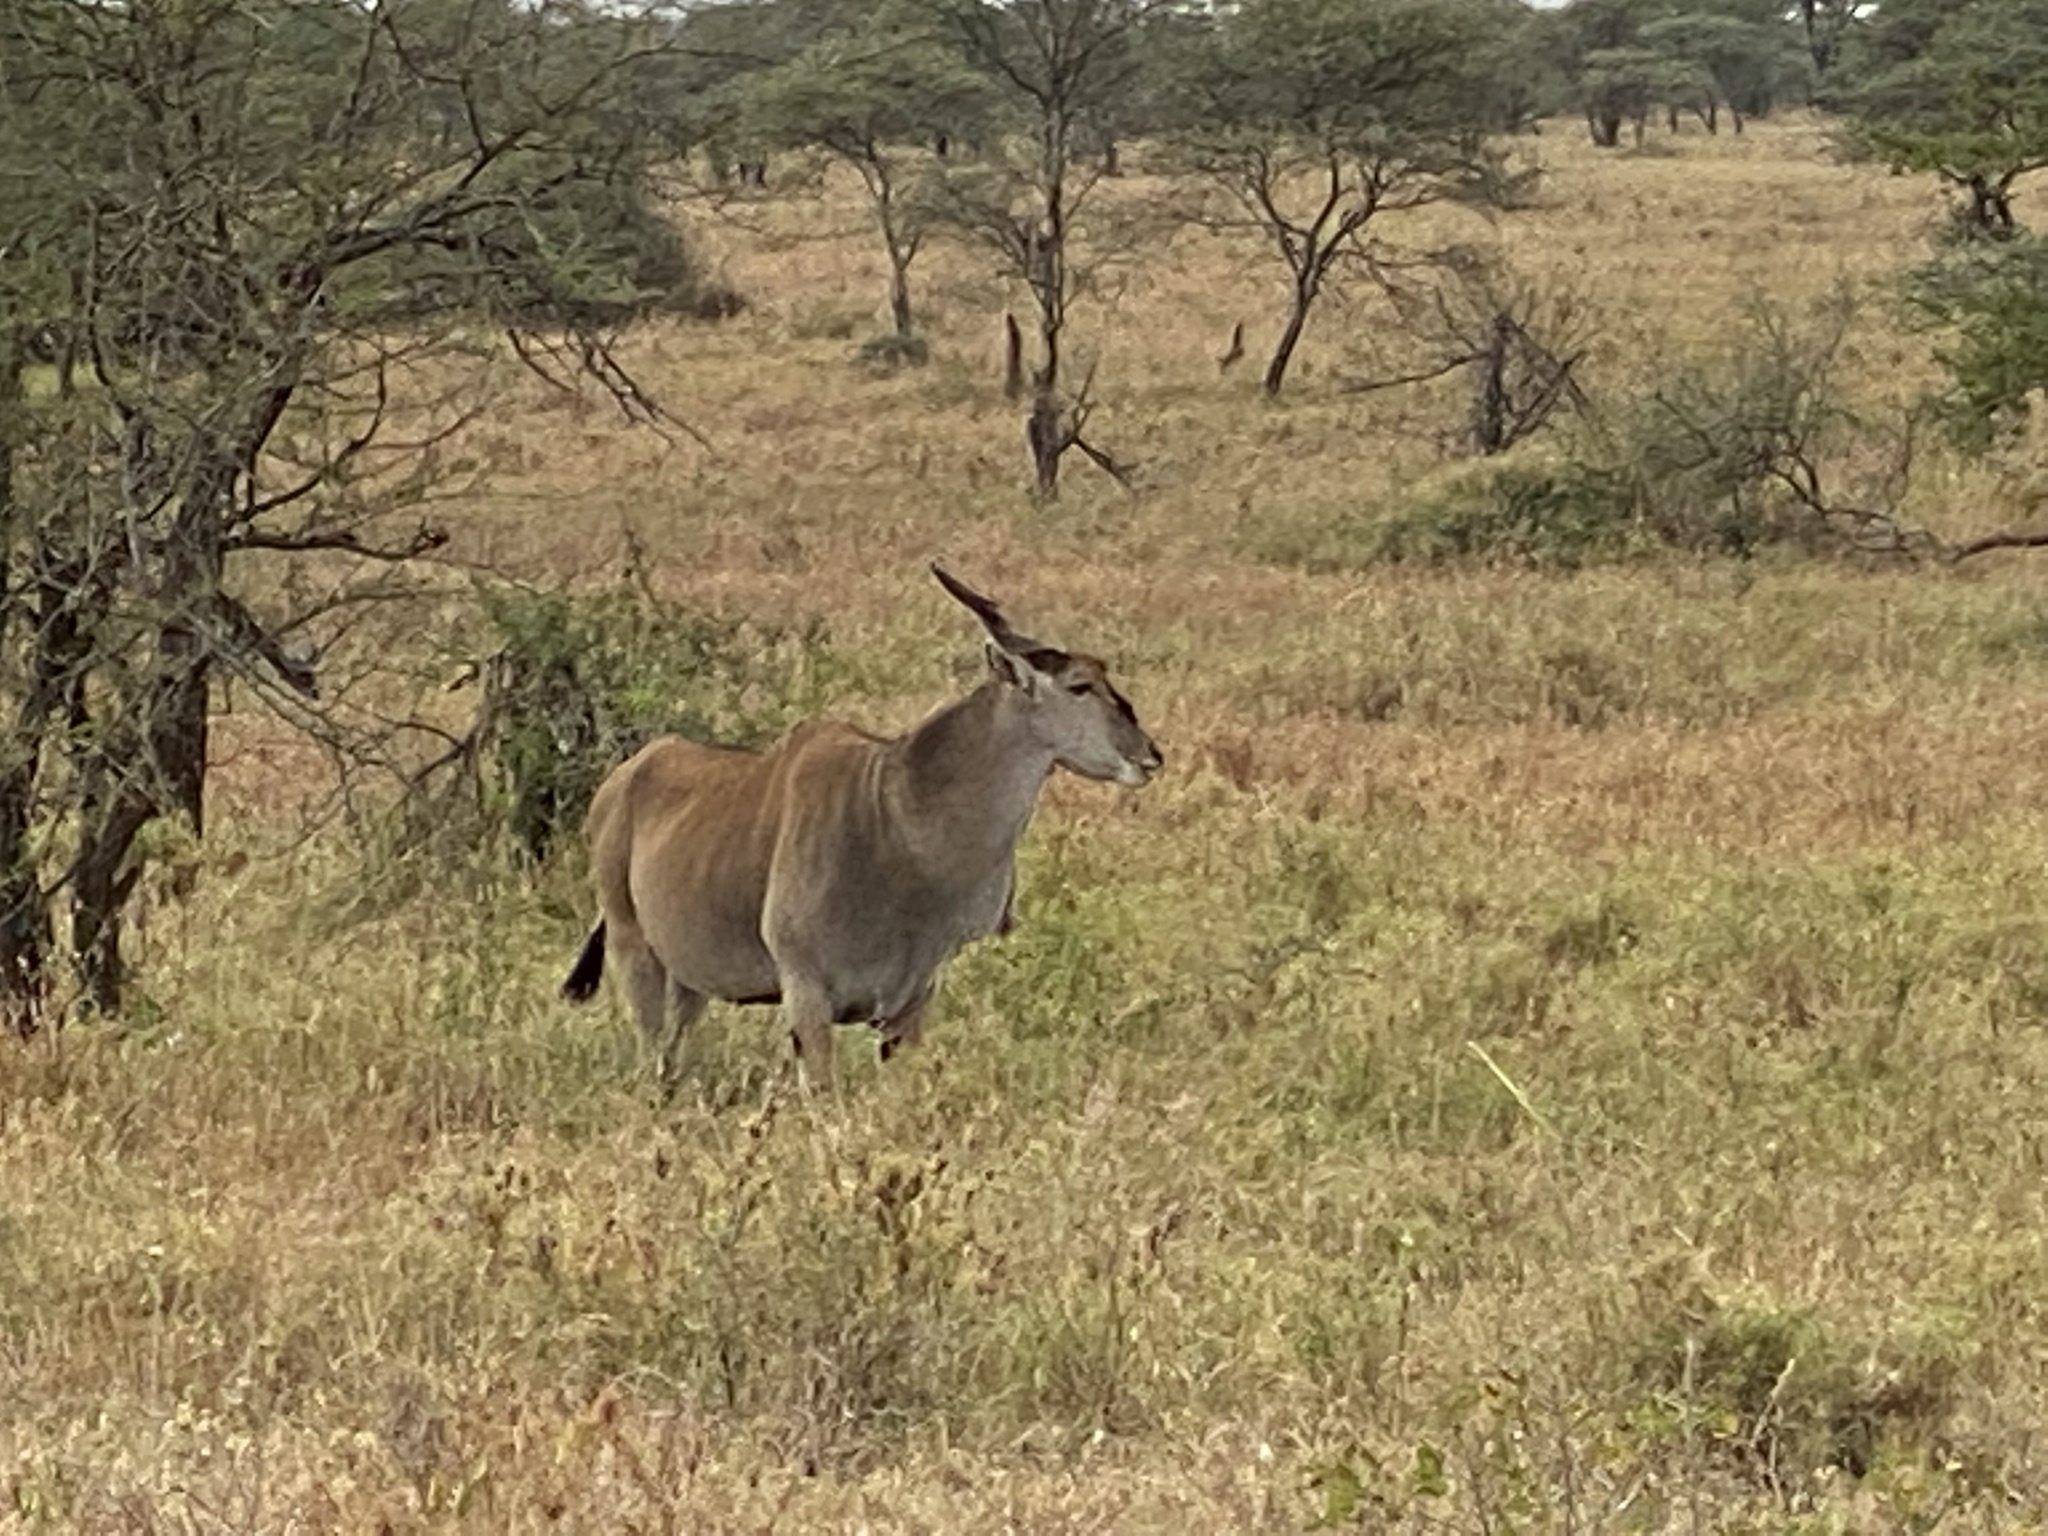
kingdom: Animalia
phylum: Chordata
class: Mammalia
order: Artiodactyla
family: Bovidae
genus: Taurotragus
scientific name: Taurotragus oryx
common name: Common eland
